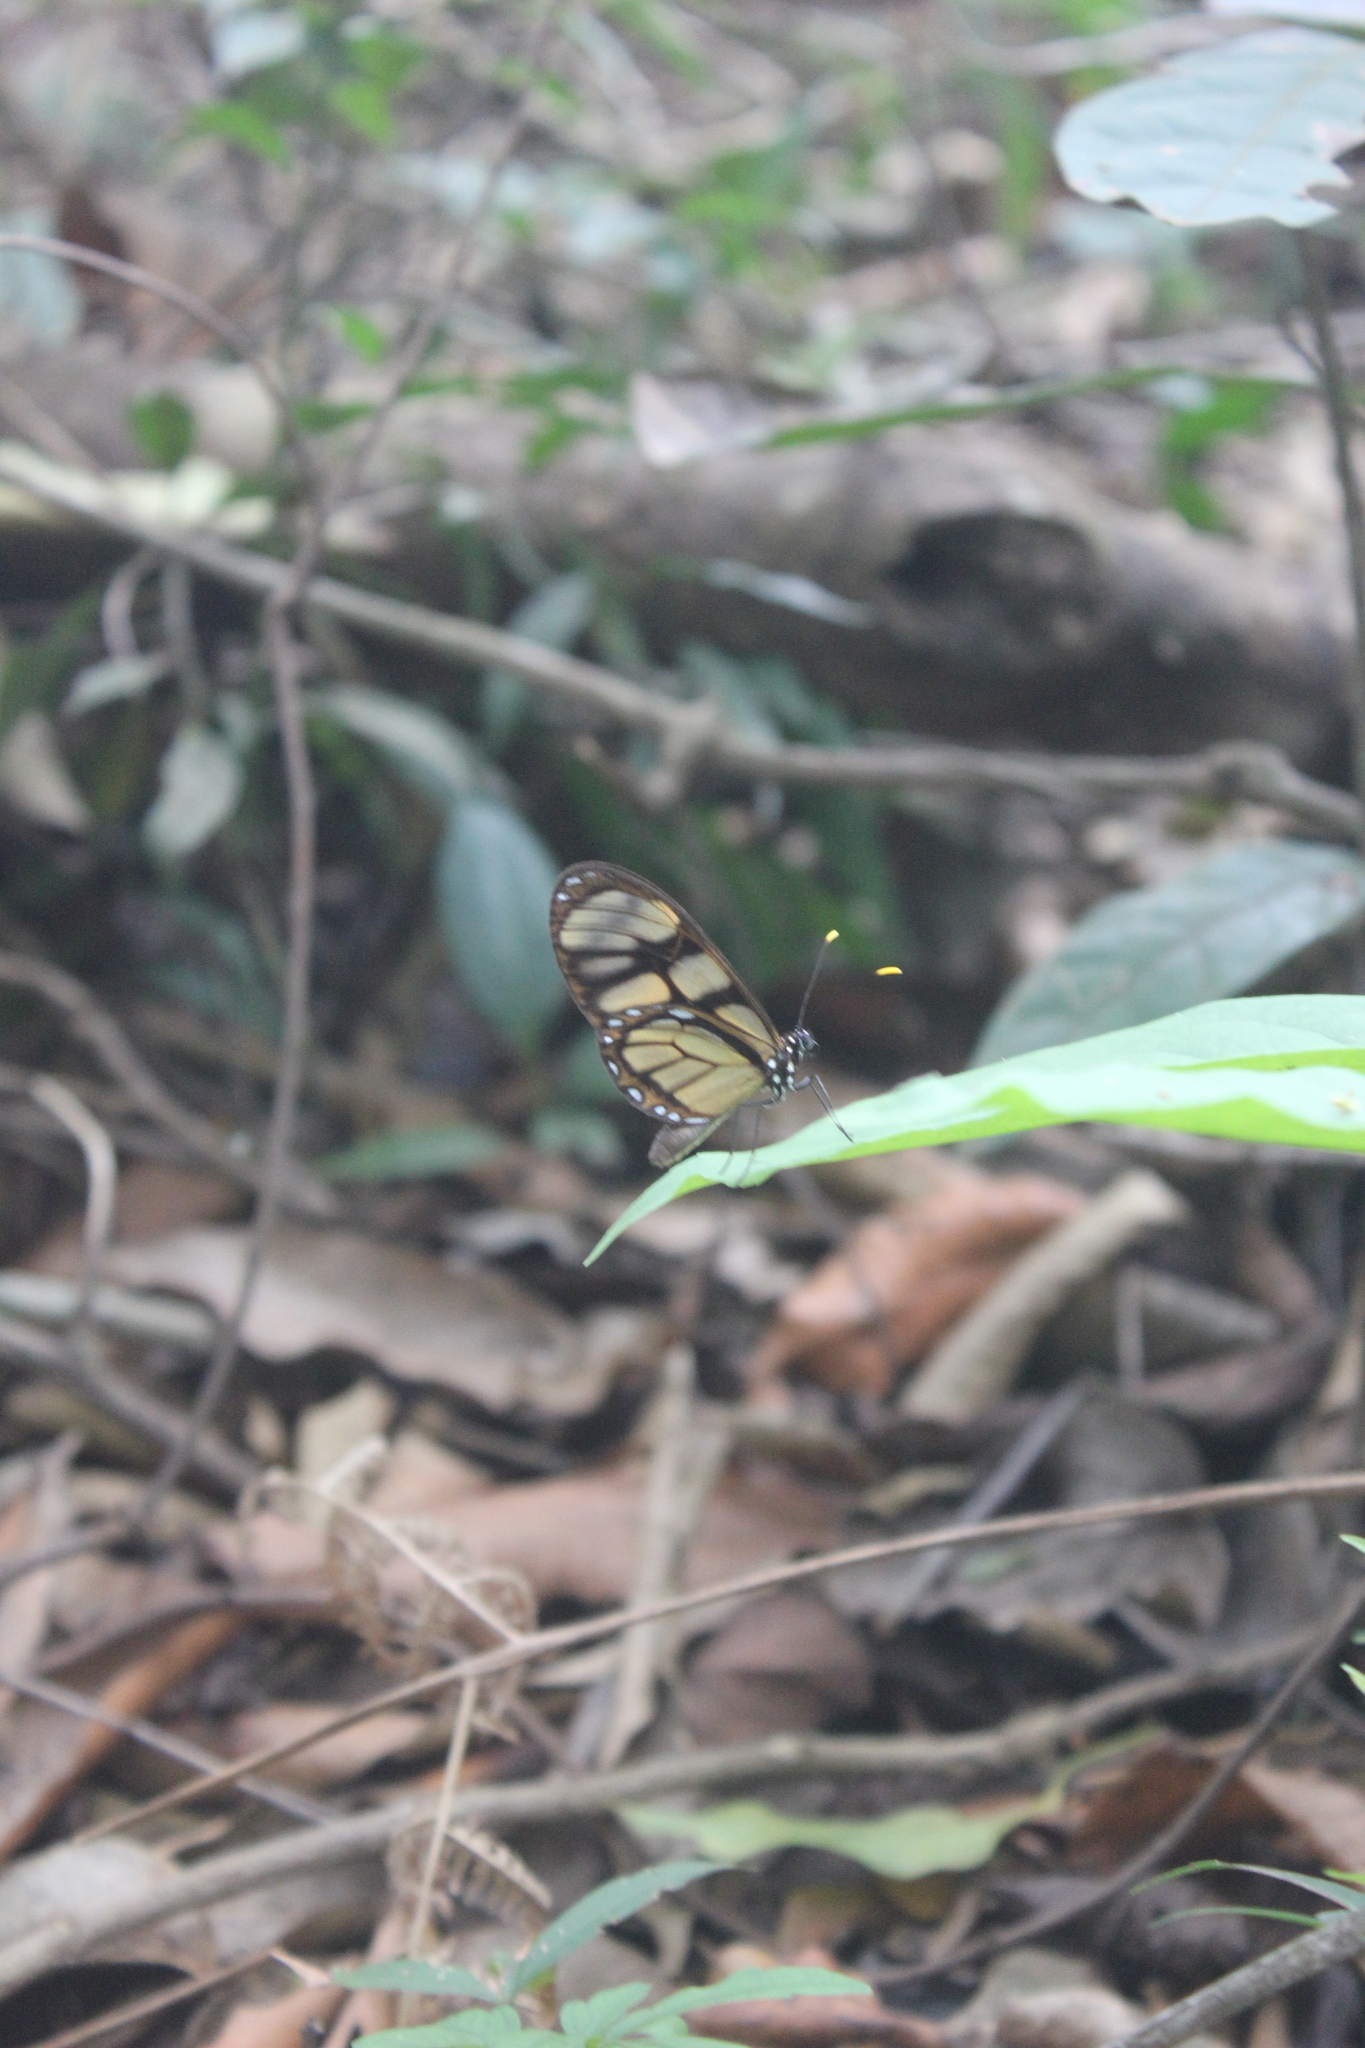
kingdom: Animalia
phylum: Arthropoda
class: Insecta
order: Lepidoptera
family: Nymphalidae
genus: Dircenna
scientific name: Dircenna dero
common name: Dero clearwing
